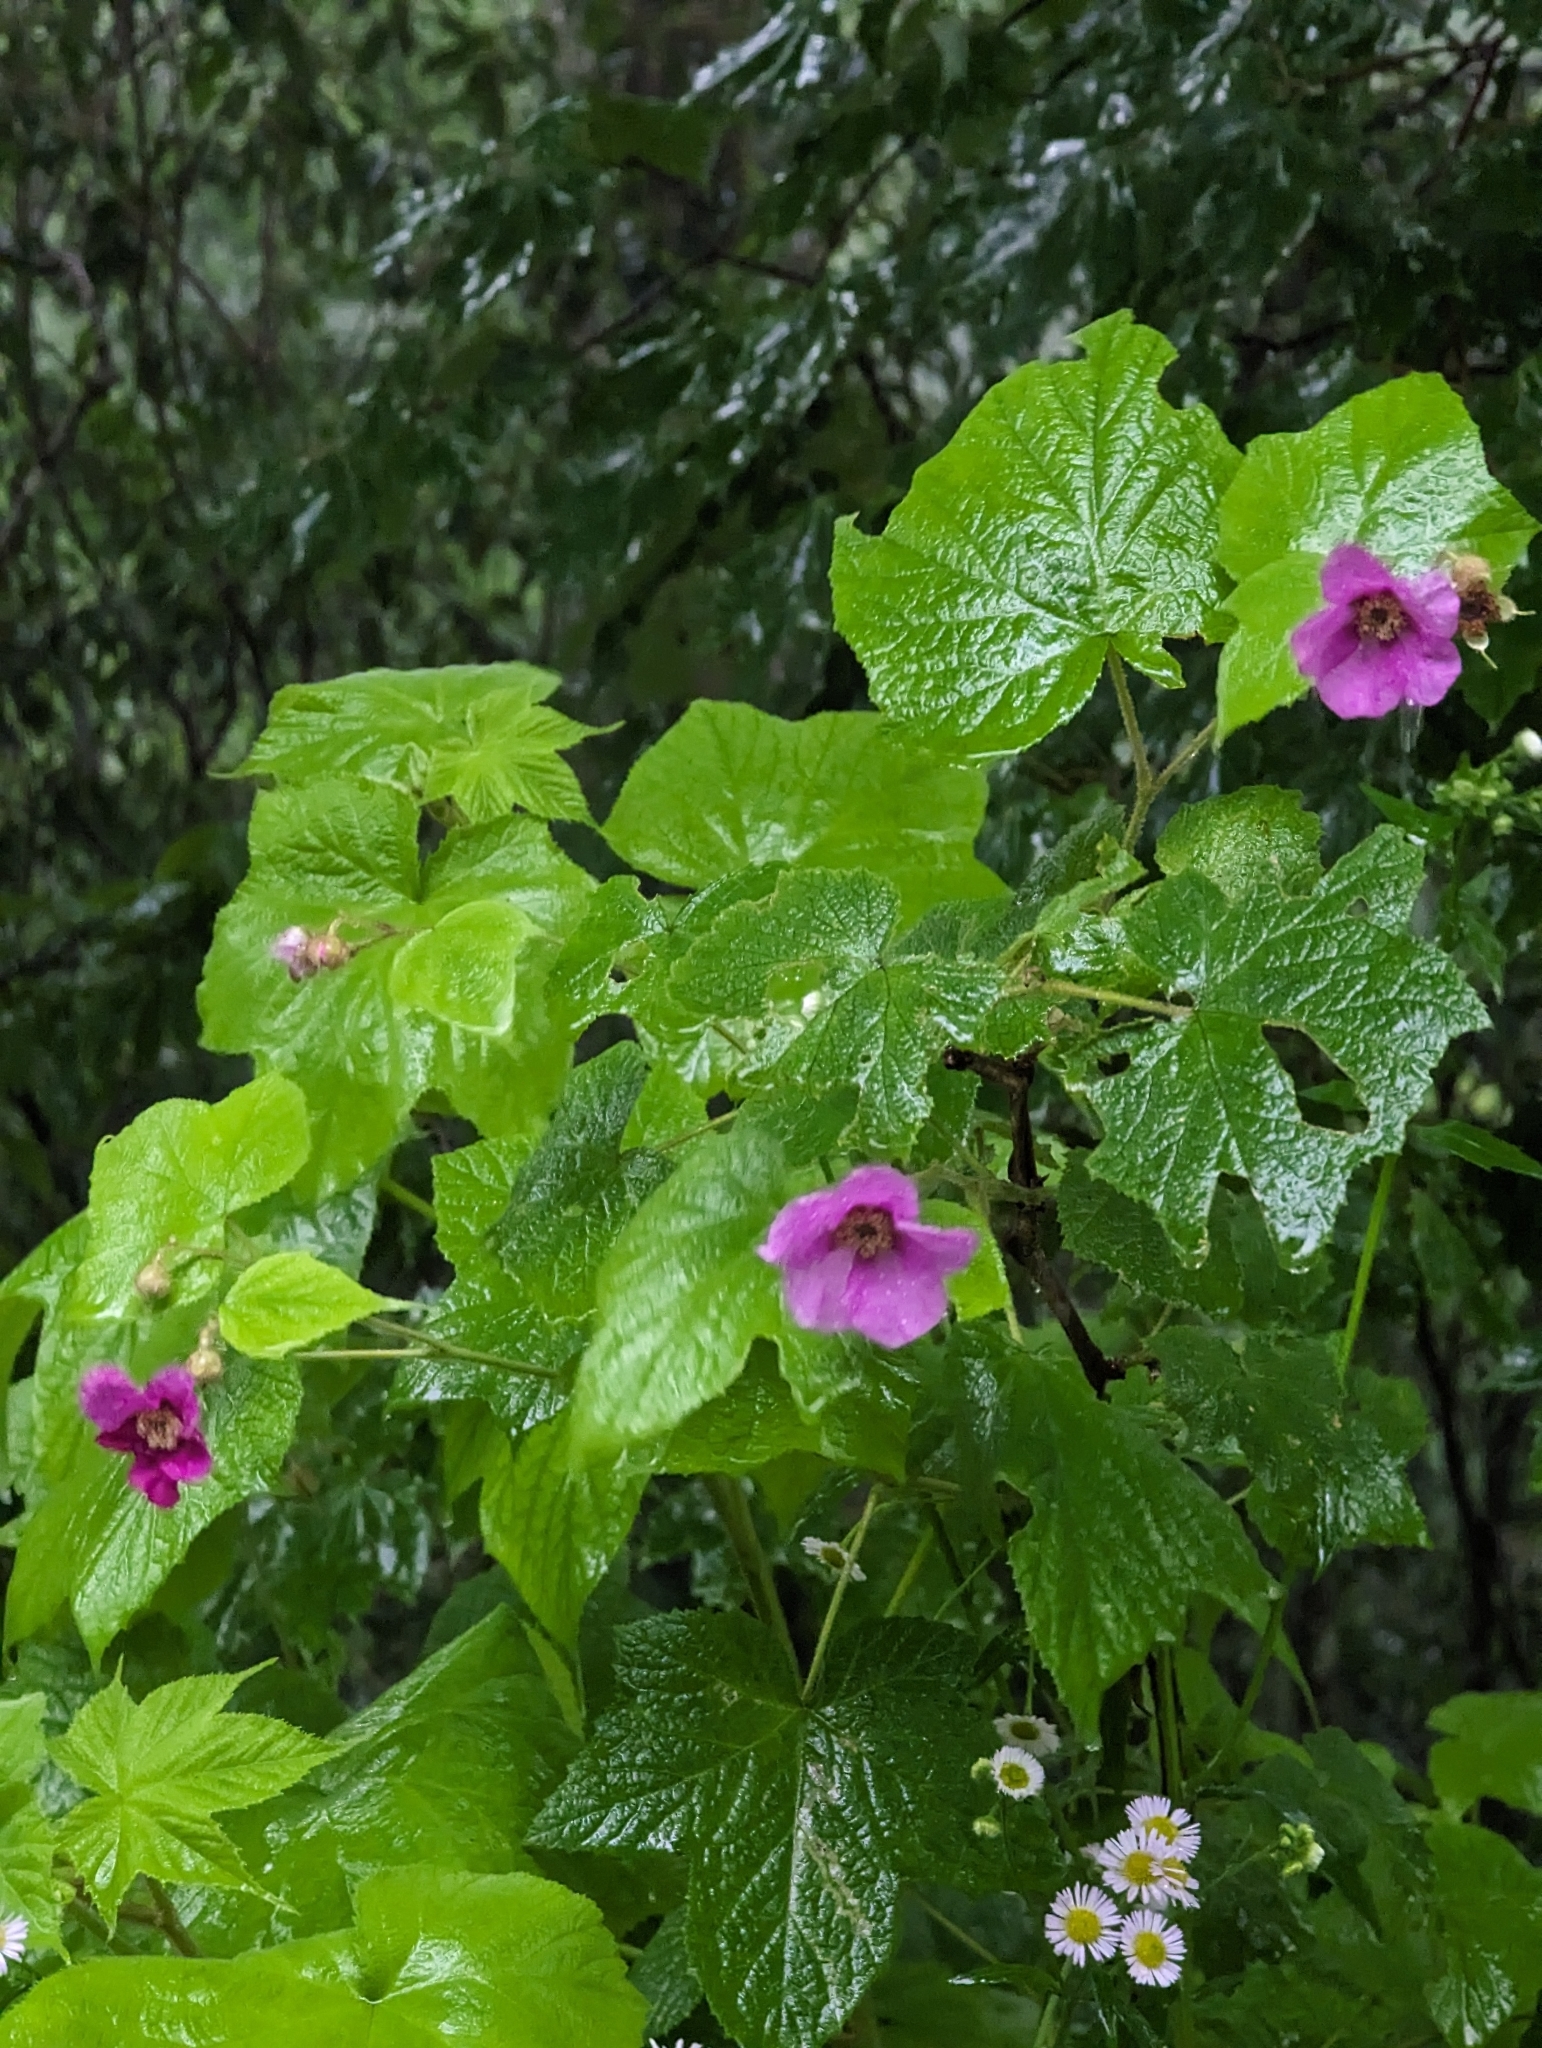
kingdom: Plantae
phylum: Tracheophyta
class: Magnoliopsida
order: Rosales
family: Rosaceae
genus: Rubus
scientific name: Rubus odoratus
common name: Purple-flowered raspberry
